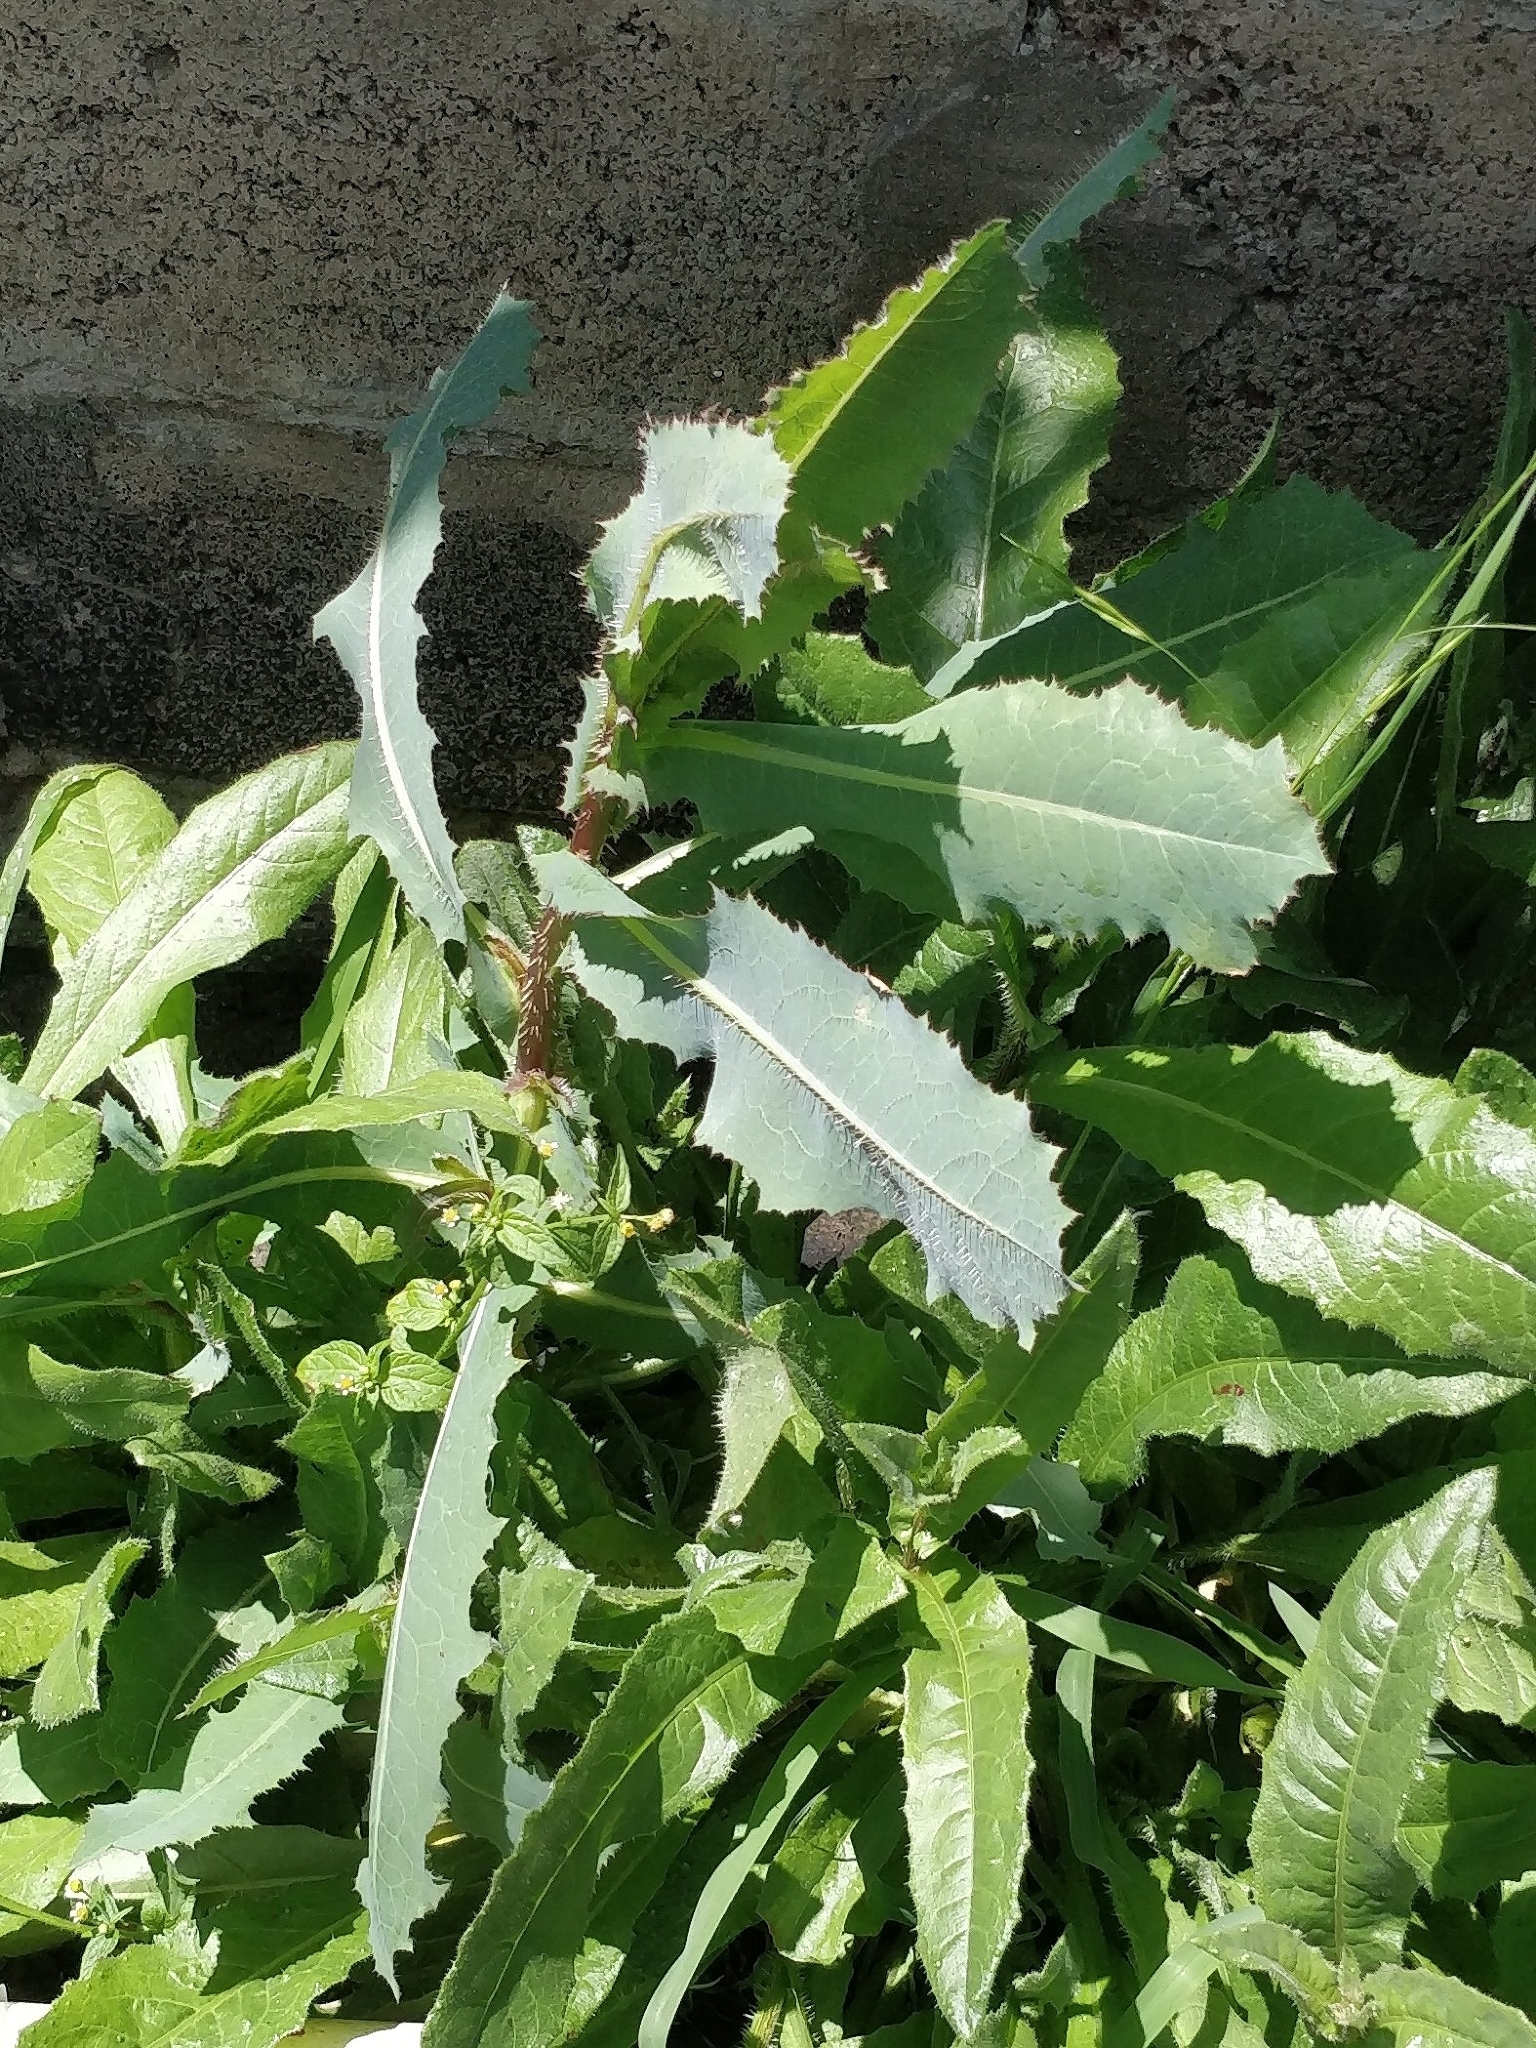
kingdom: Plantae
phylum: Tracheophyta
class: Magnoliopsida
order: Asterales
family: Asteraceae
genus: Lactuca
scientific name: Lactuca serriola
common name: Prickly lettuce
